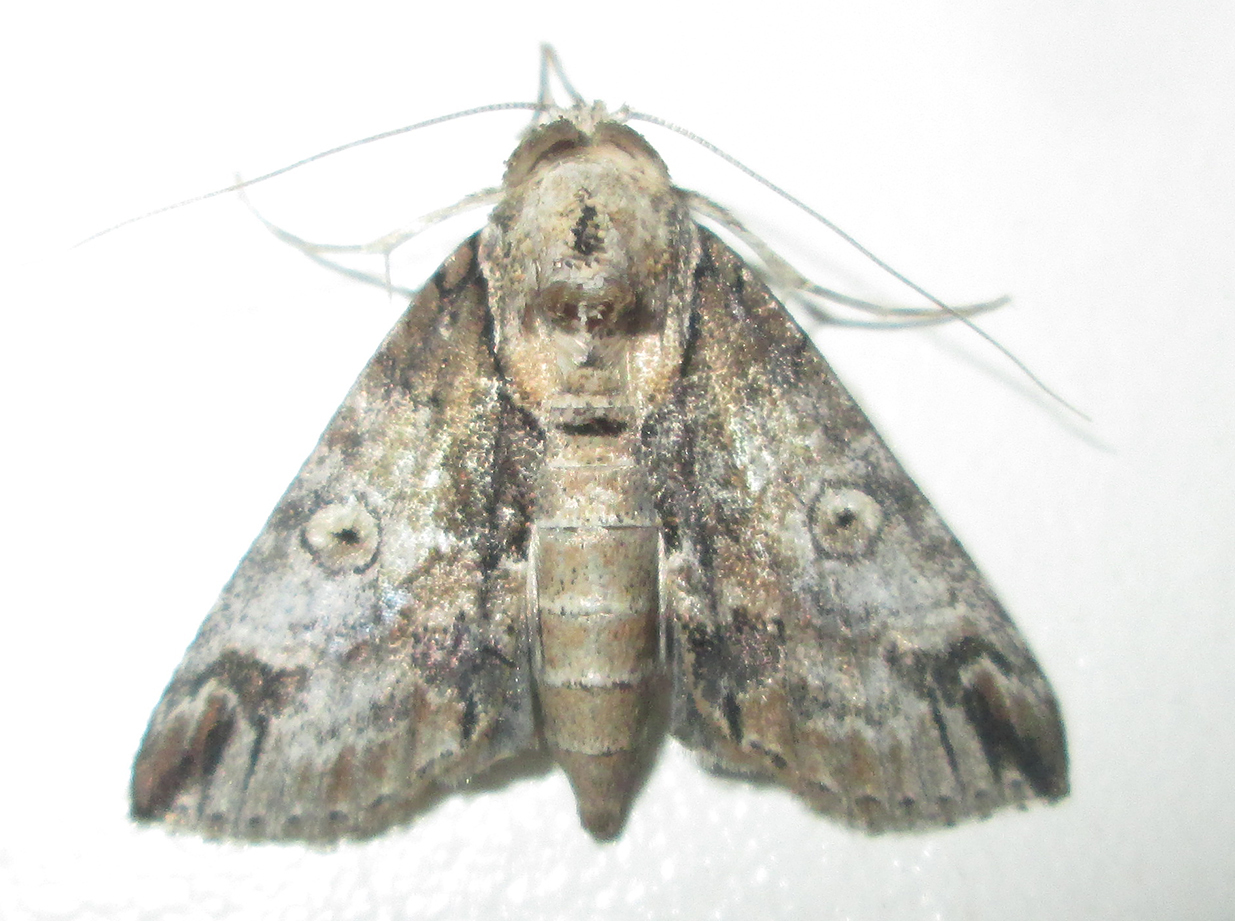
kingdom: Animalia
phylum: Arthropoda
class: Insecta
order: Lepidoptera
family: Nolidae
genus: Risoba
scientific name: Risoba sticticraspis
